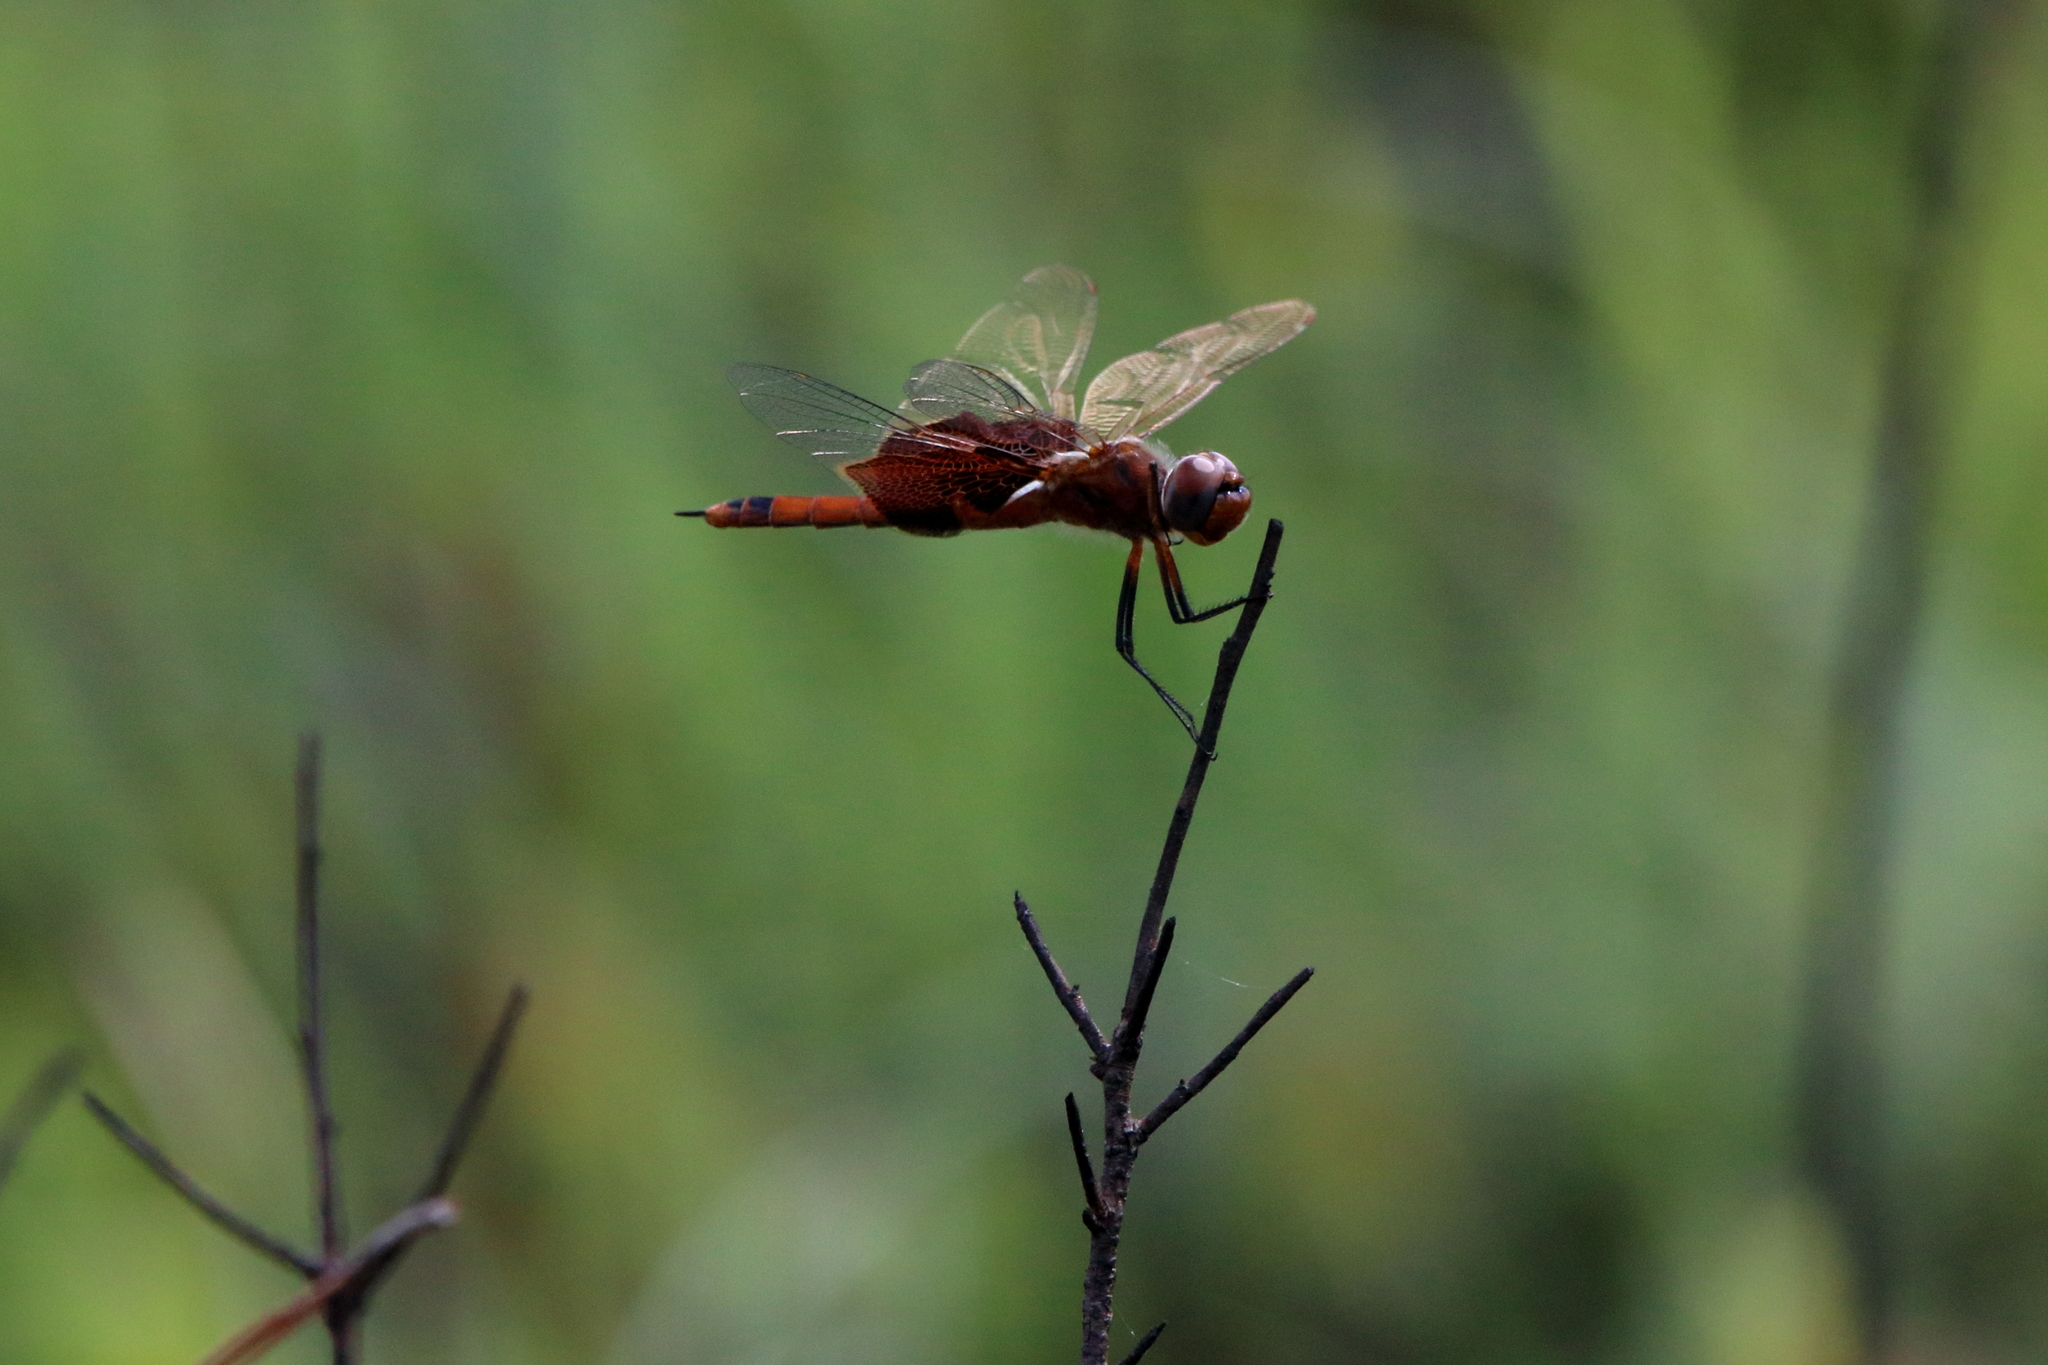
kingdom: Animalia
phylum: Arthropoda
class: Insecta
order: Odonata
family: Libellulidae
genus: Tramea
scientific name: Tramea carolina
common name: Carolina saddlebags
